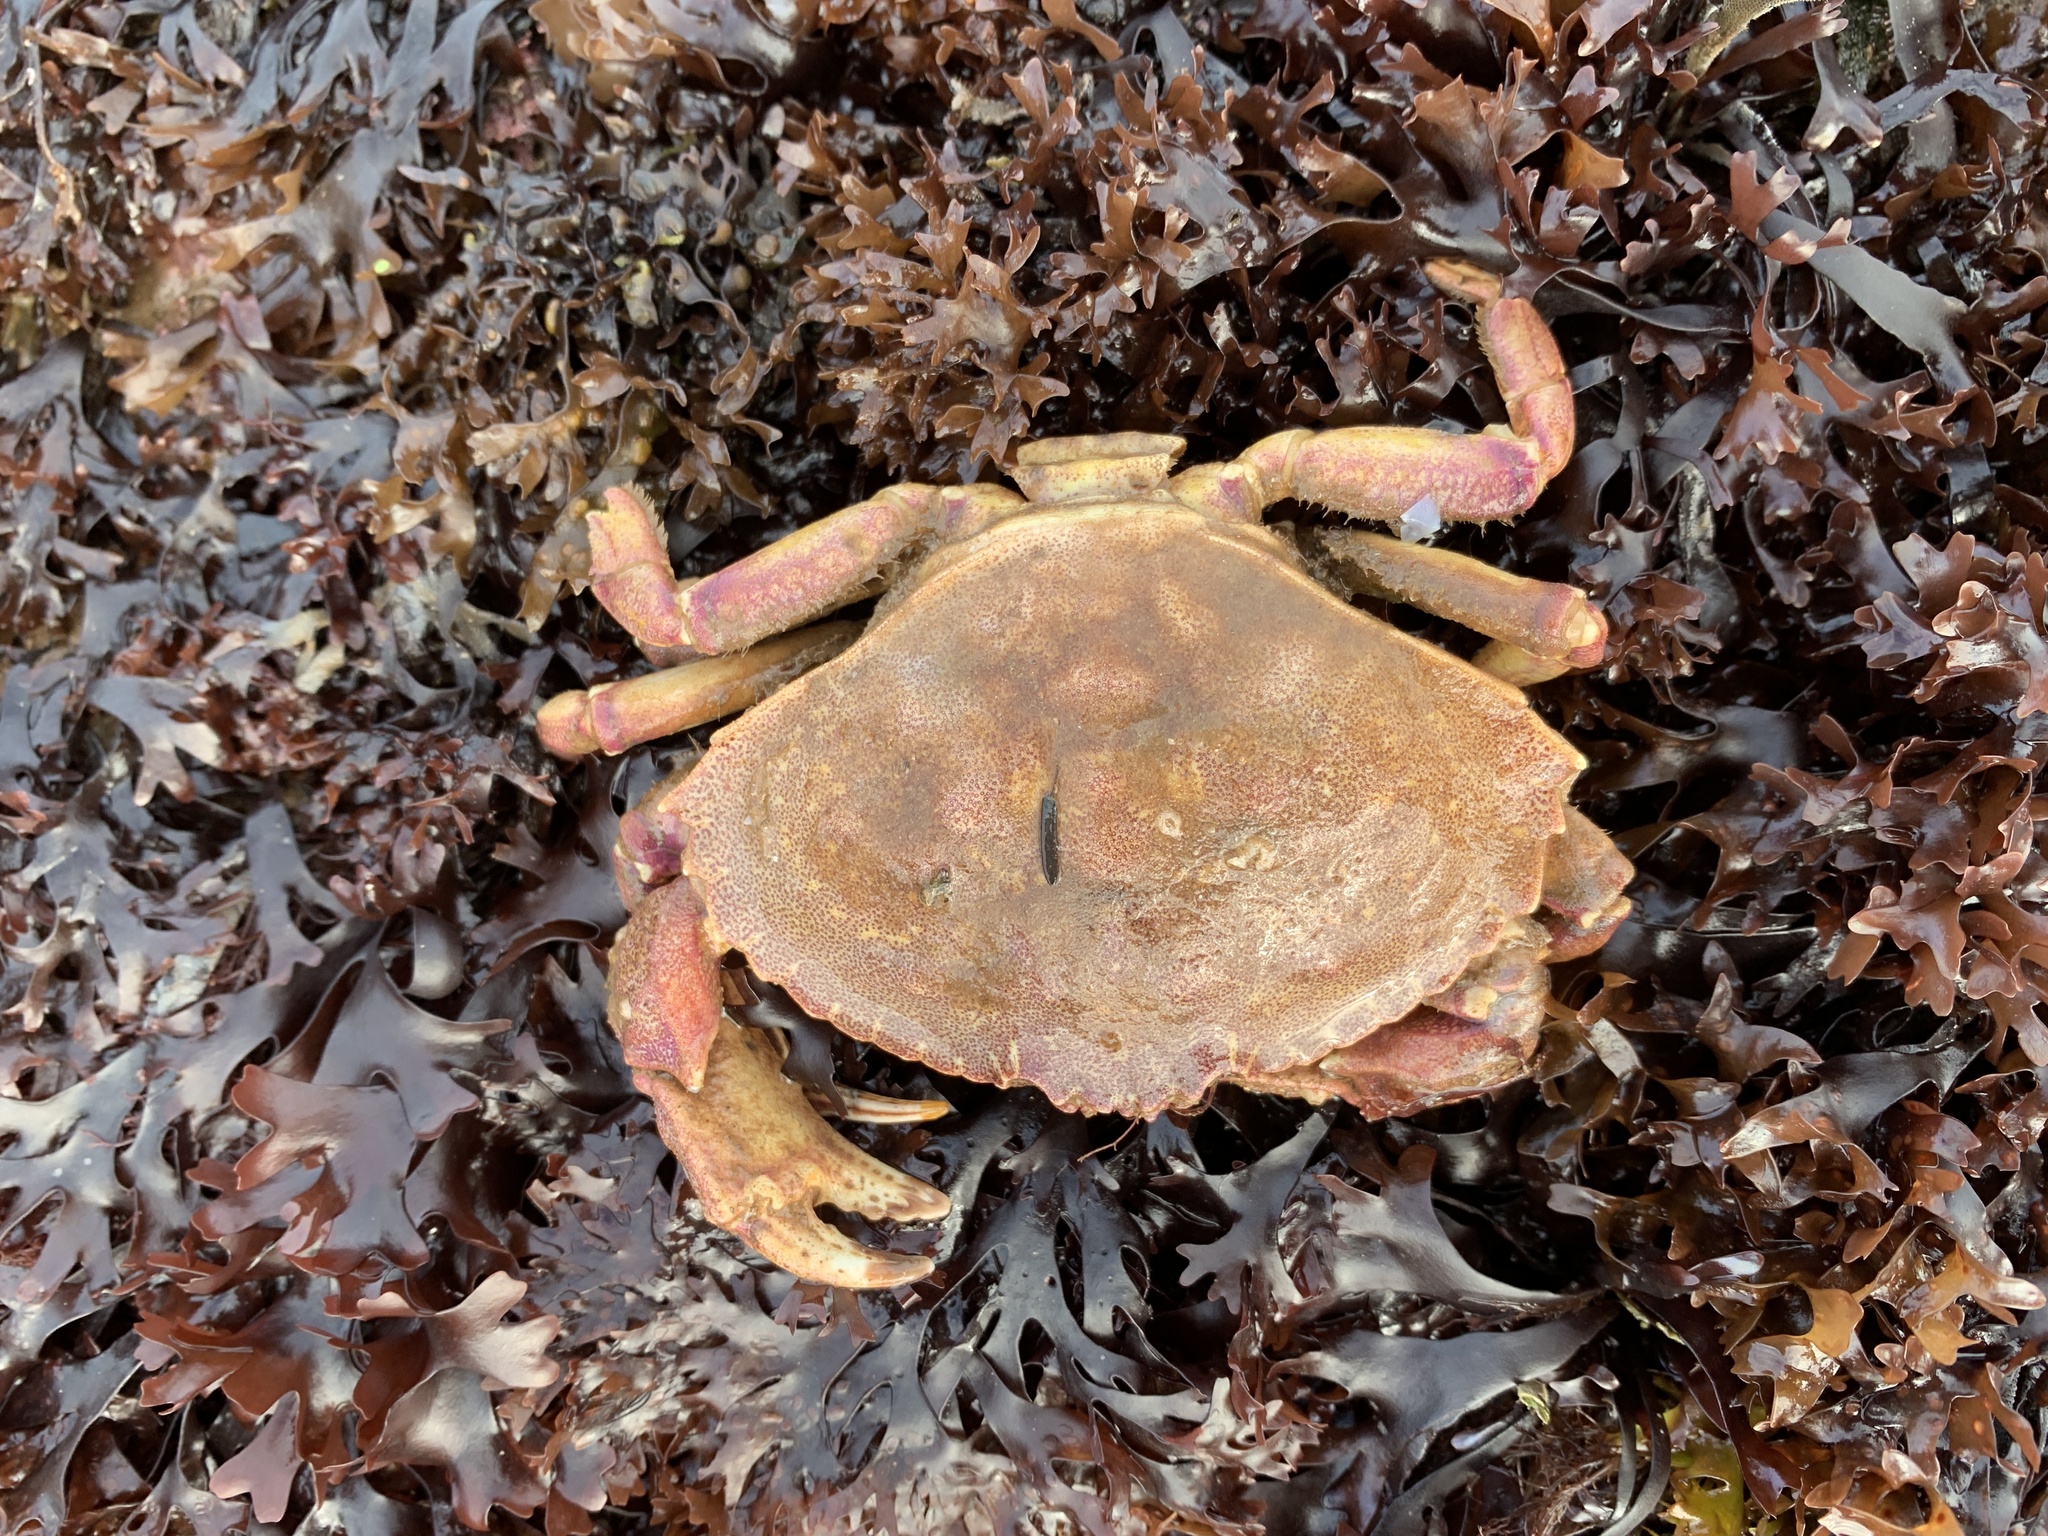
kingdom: Animalia
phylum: Arthropoda
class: Malacostraca
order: Decapoda
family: Cancridae
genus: Cancer
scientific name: Cancer irroratus
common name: Atlantic rock crab
